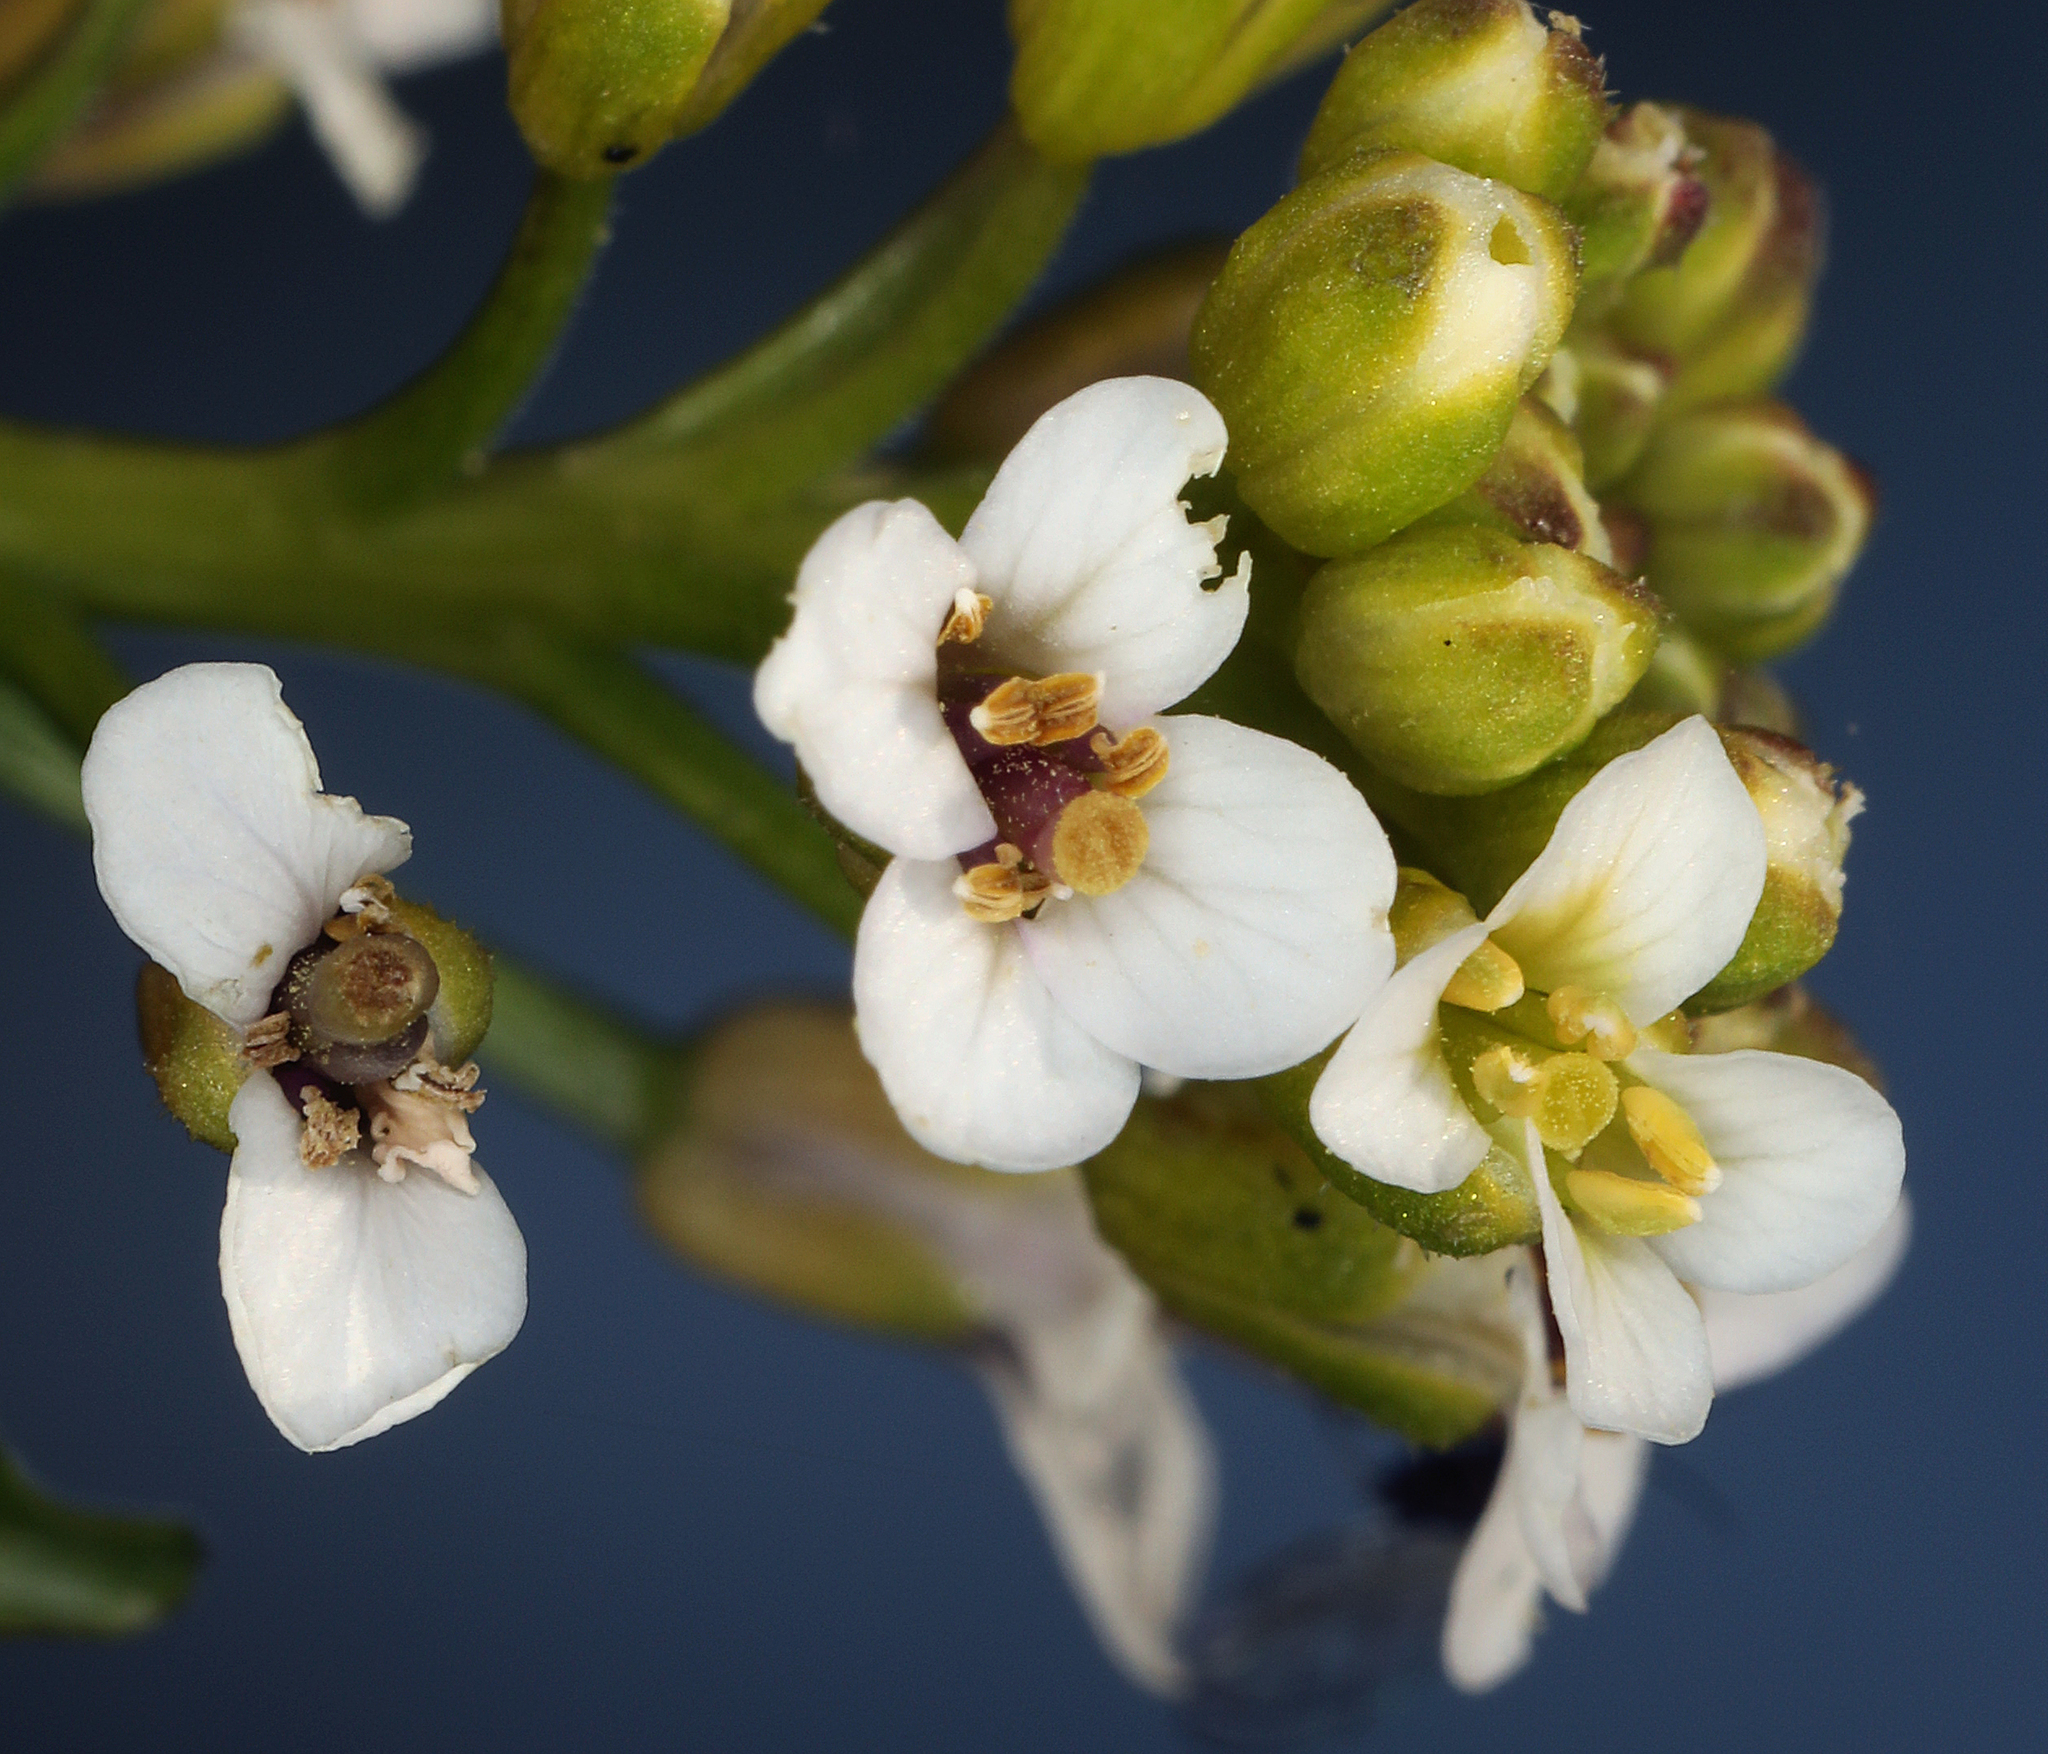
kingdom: Plantae
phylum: Tracheophyta
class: Magnoliopsida
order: Brassicales
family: Brassicaceae
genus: Nasturtium
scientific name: Nasturtium officinale
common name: Watercress
